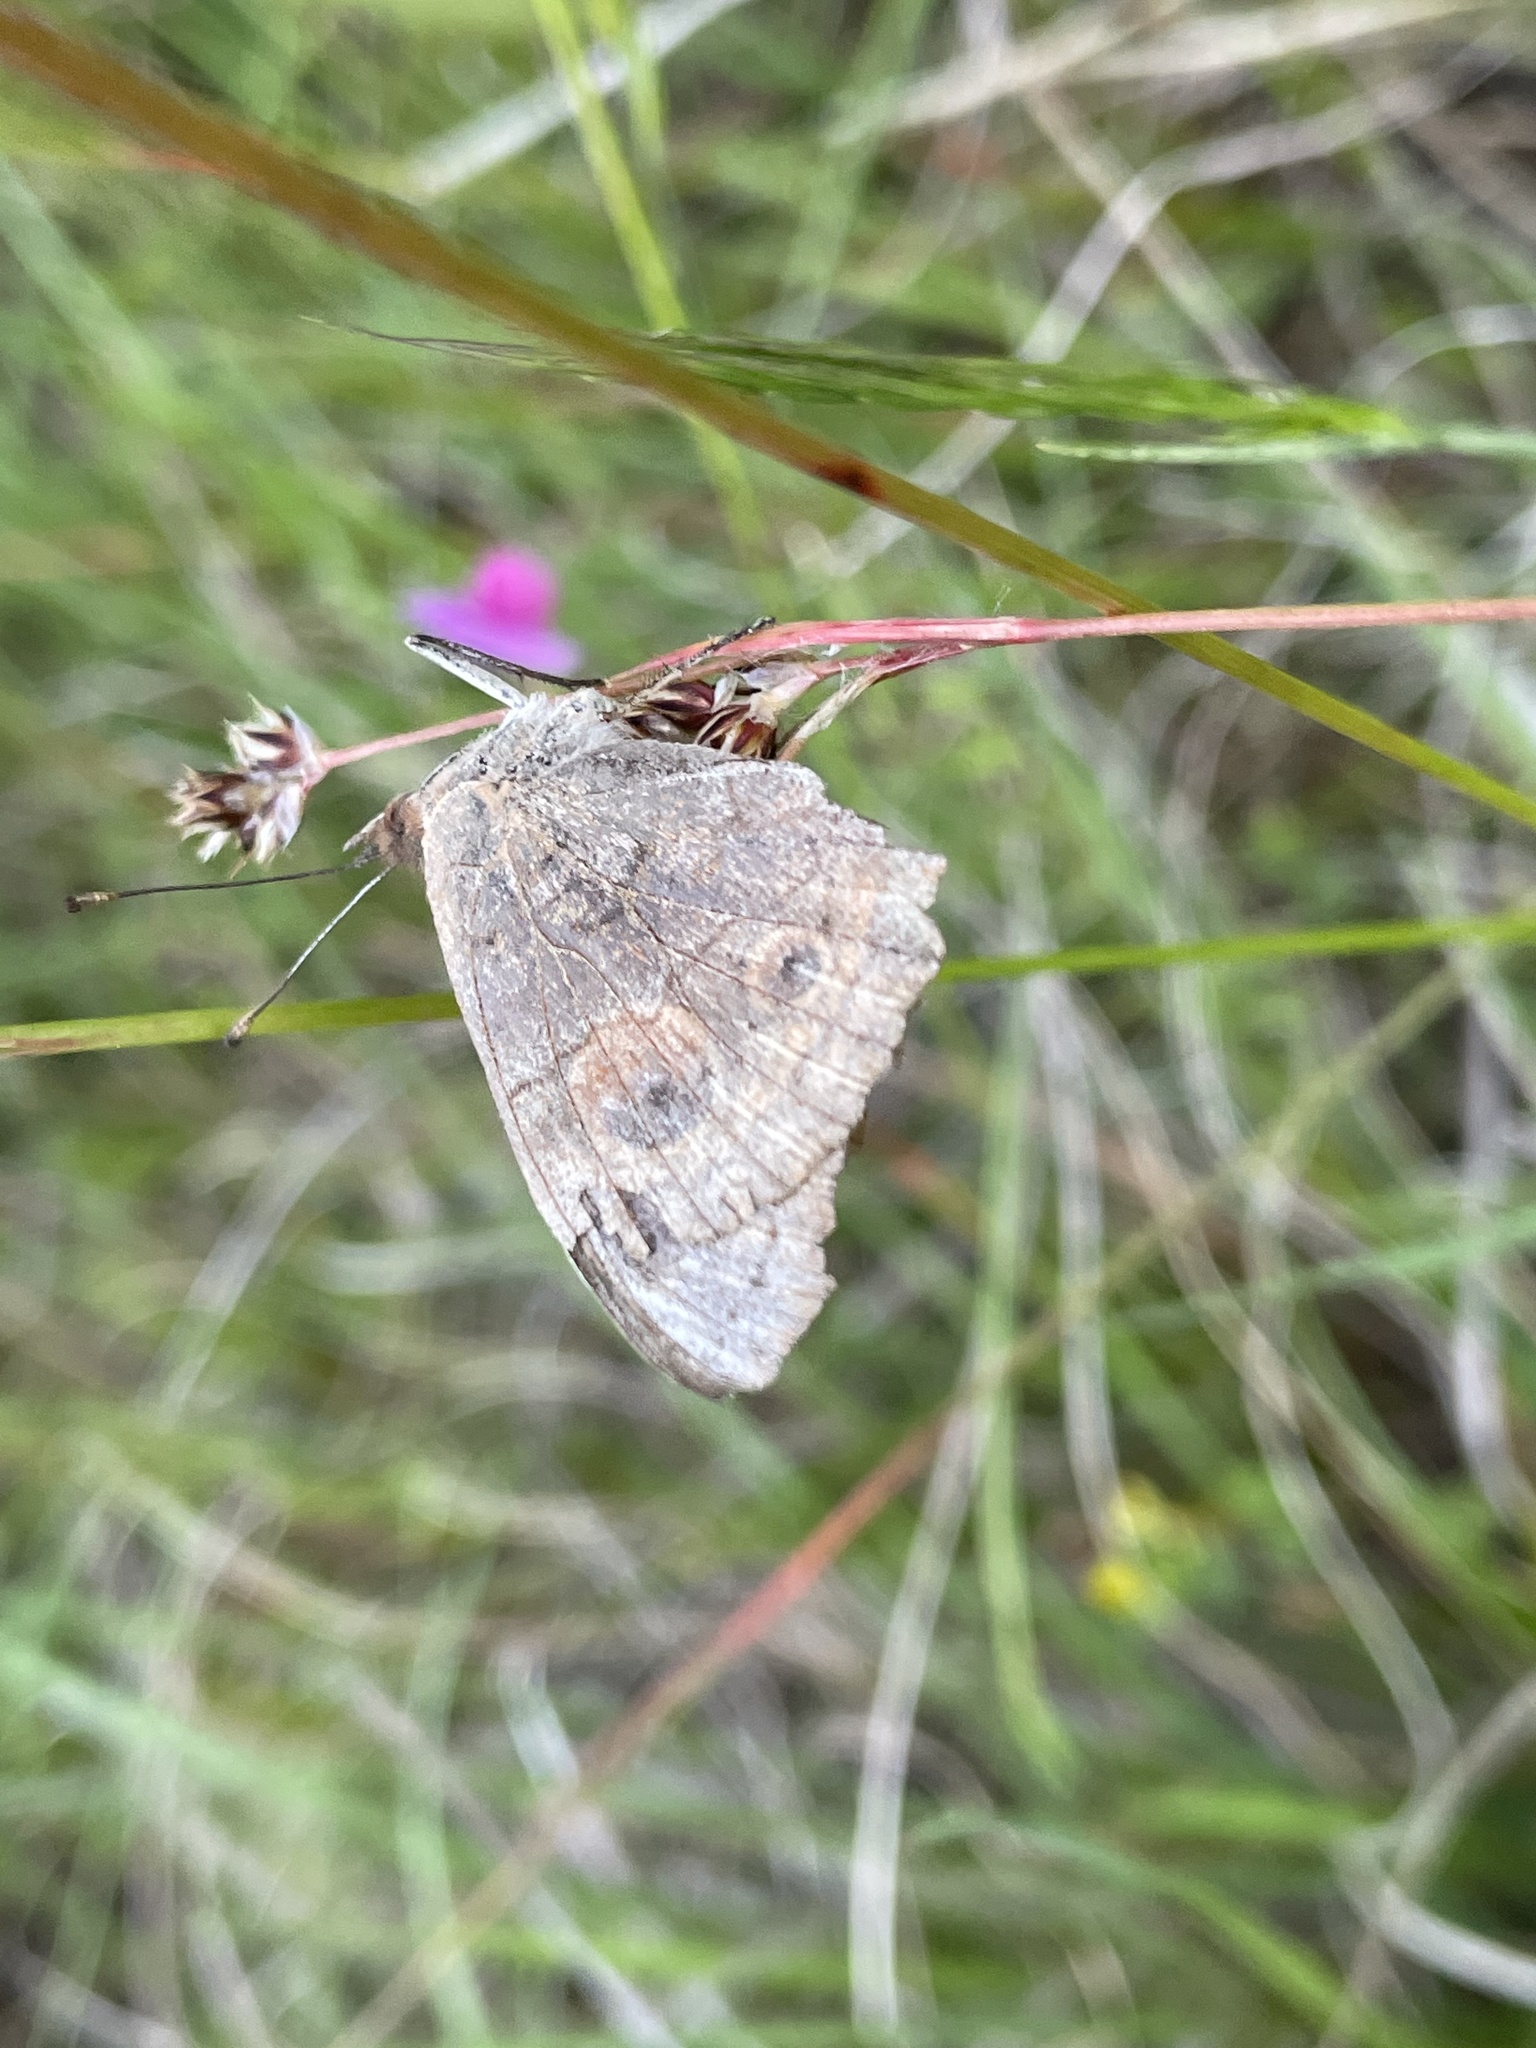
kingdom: Animalia
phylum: Arthropoda
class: Insecta
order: Lepidoptera
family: Nymphalidae
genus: Junonia
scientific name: Junonia grisea
